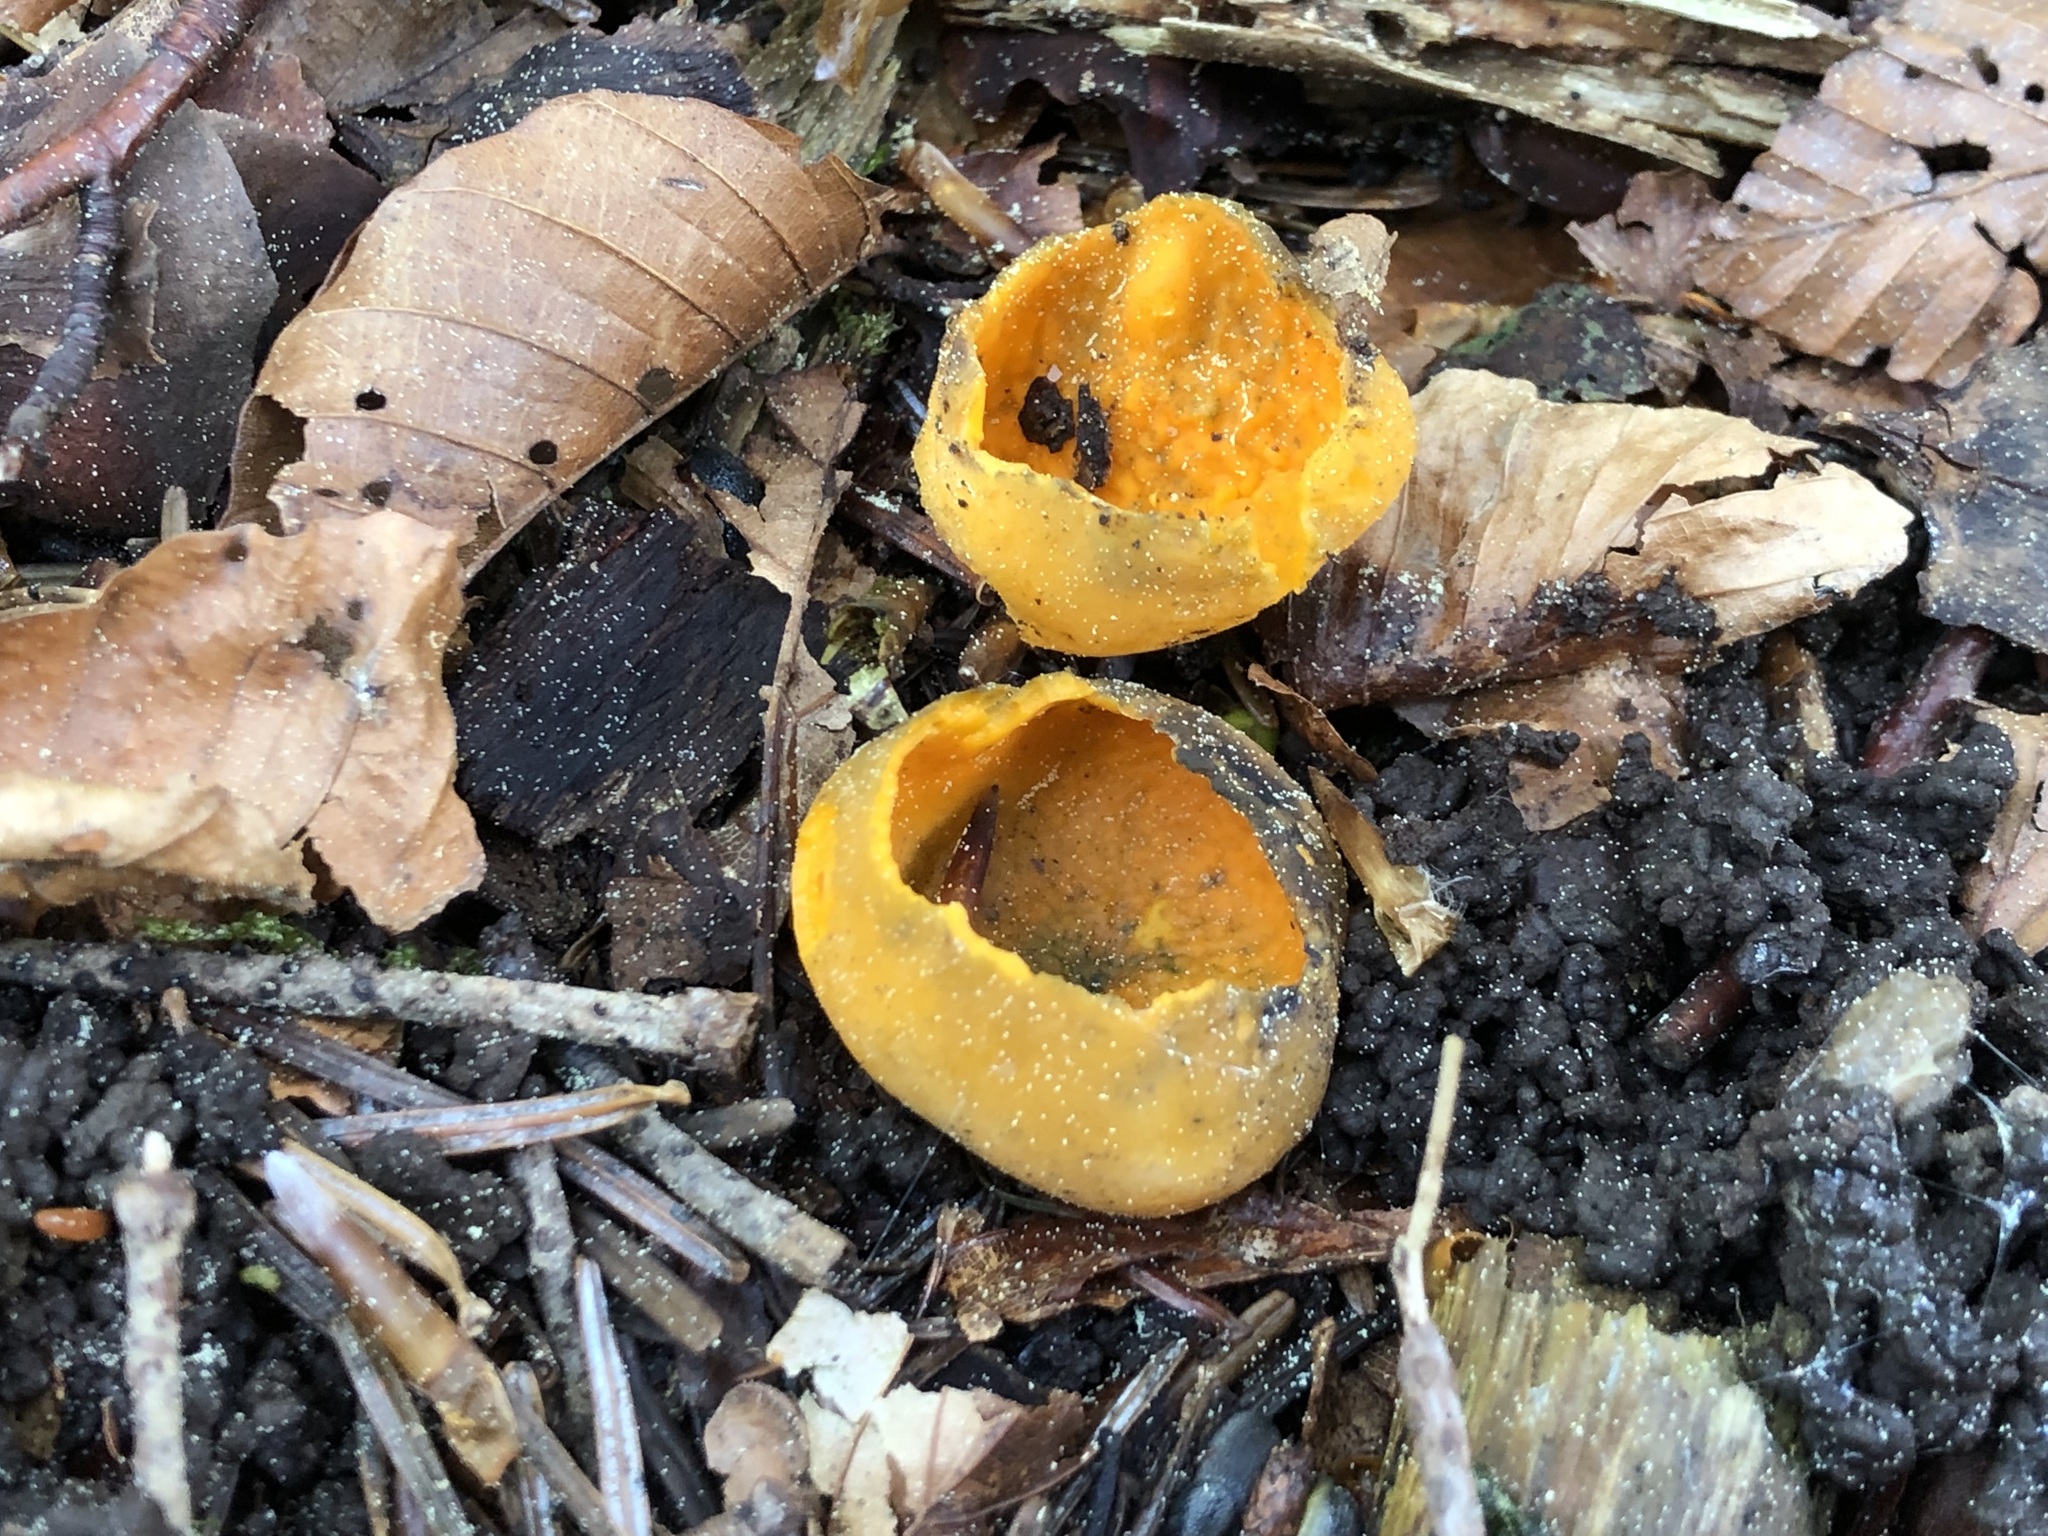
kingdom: Fungi
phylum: Ascomycota
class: Pezizomycetes
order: Pezizales
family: Caloscyphaceae
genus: Caloscypha
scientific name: Caloscypha fulgens
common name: Golden cup
